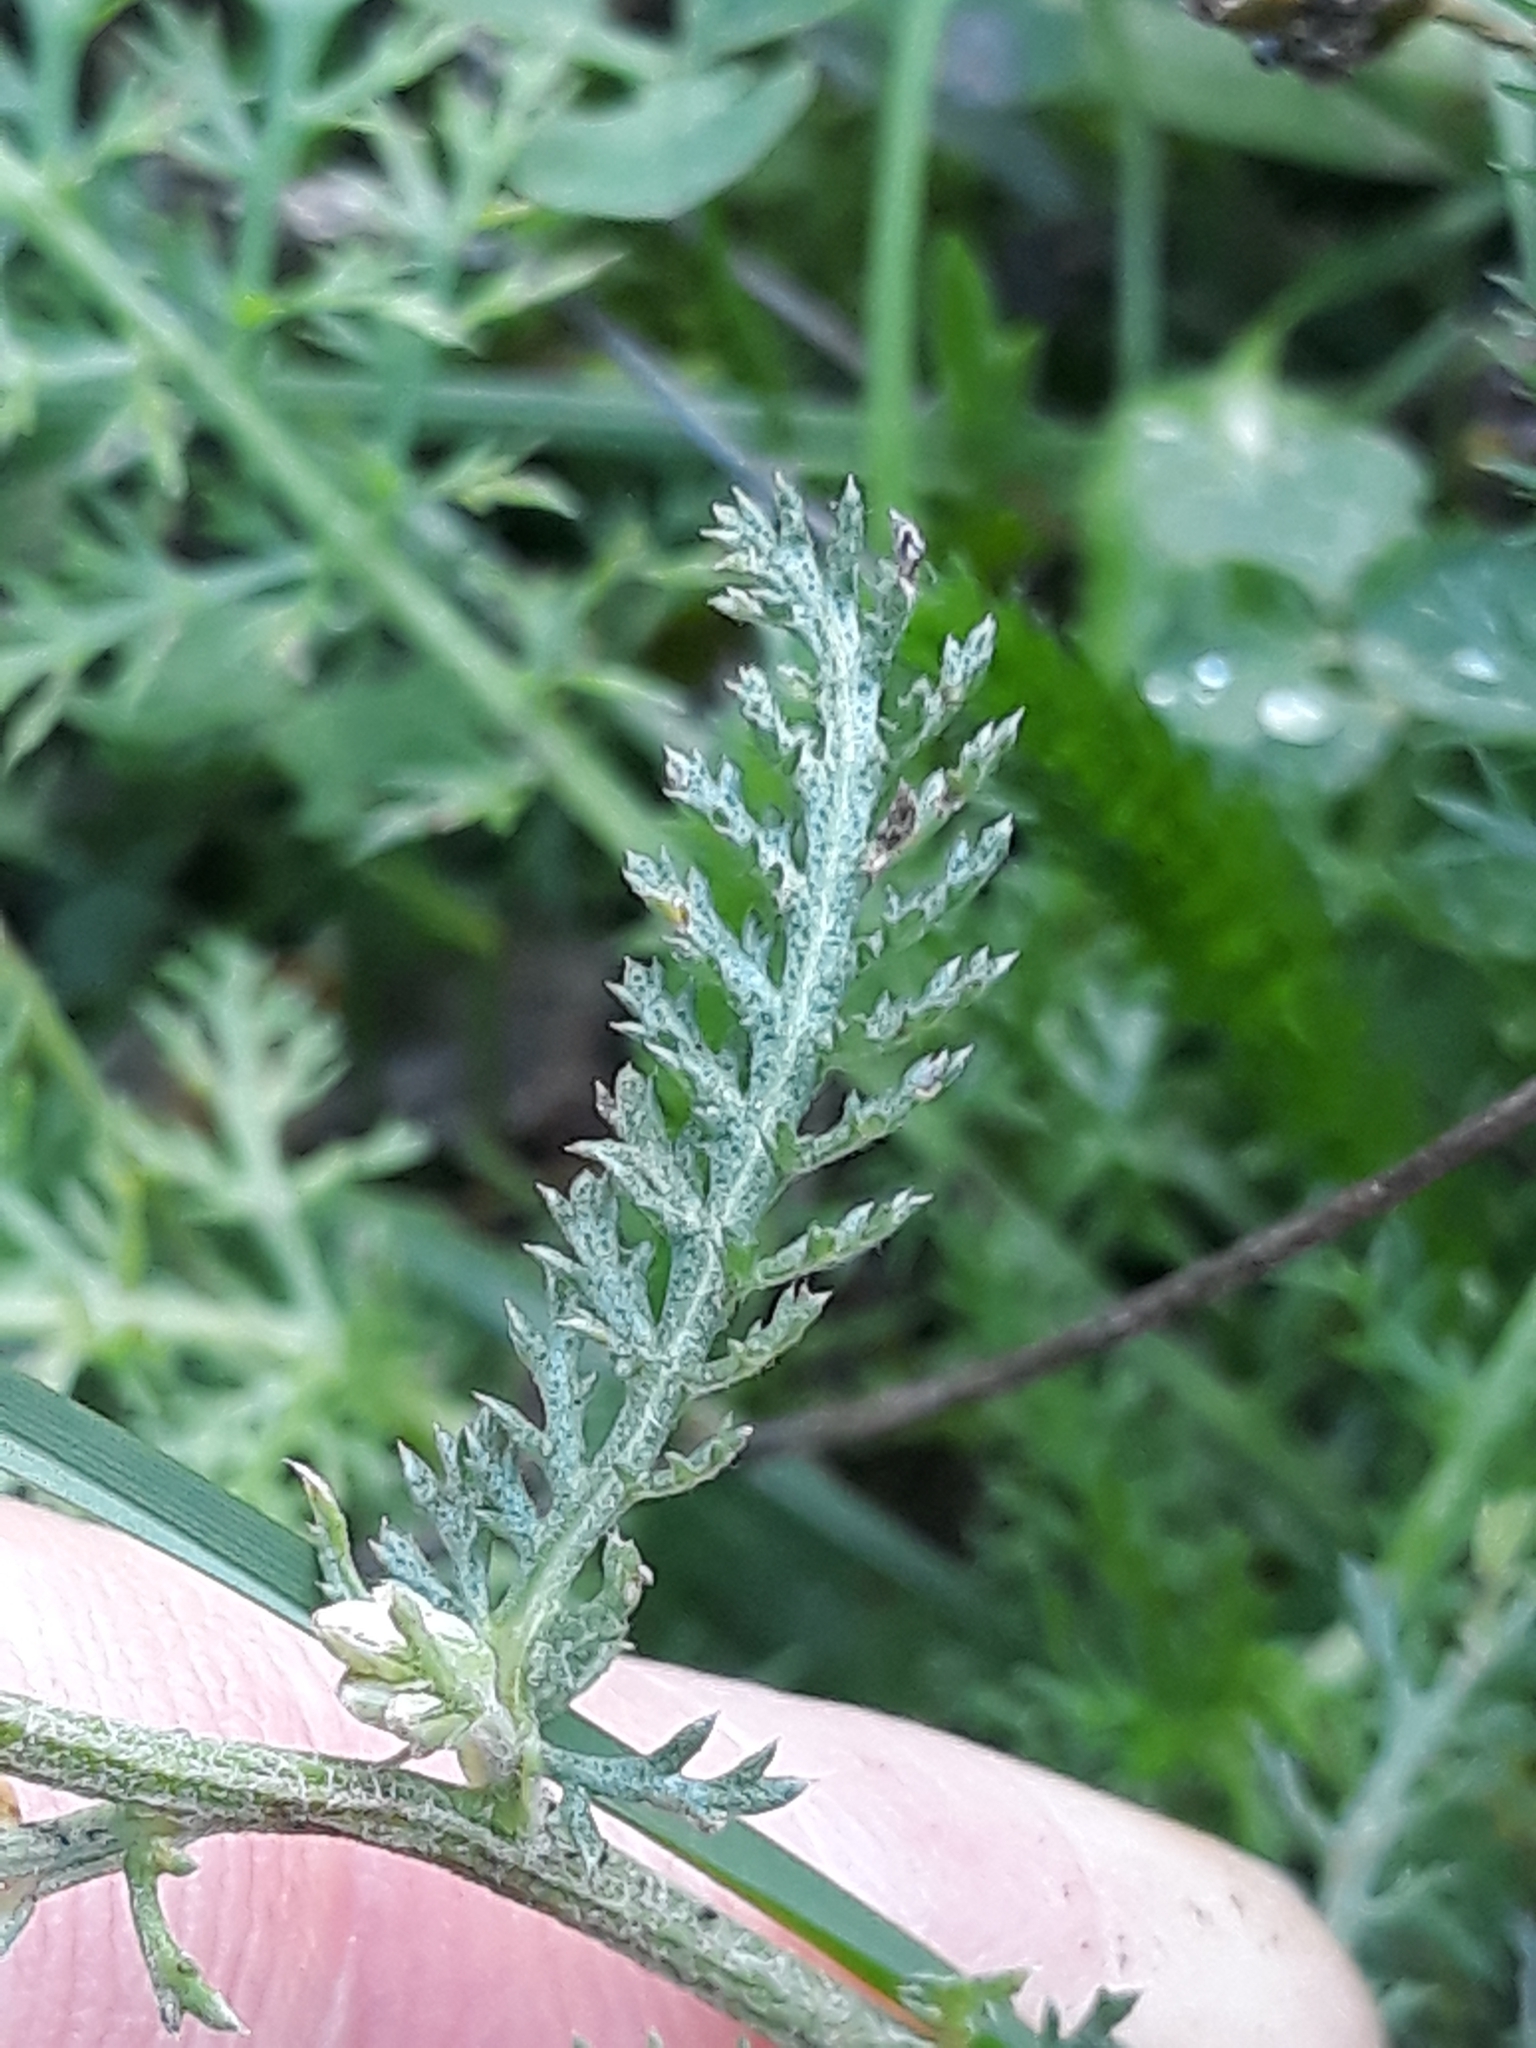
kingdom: Plantae
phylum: Tracheophyta
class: Magnoliopsida
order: Asterales
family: Asteraceae
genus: Achillea
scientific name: Achillea millefolium
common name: Yarrow
